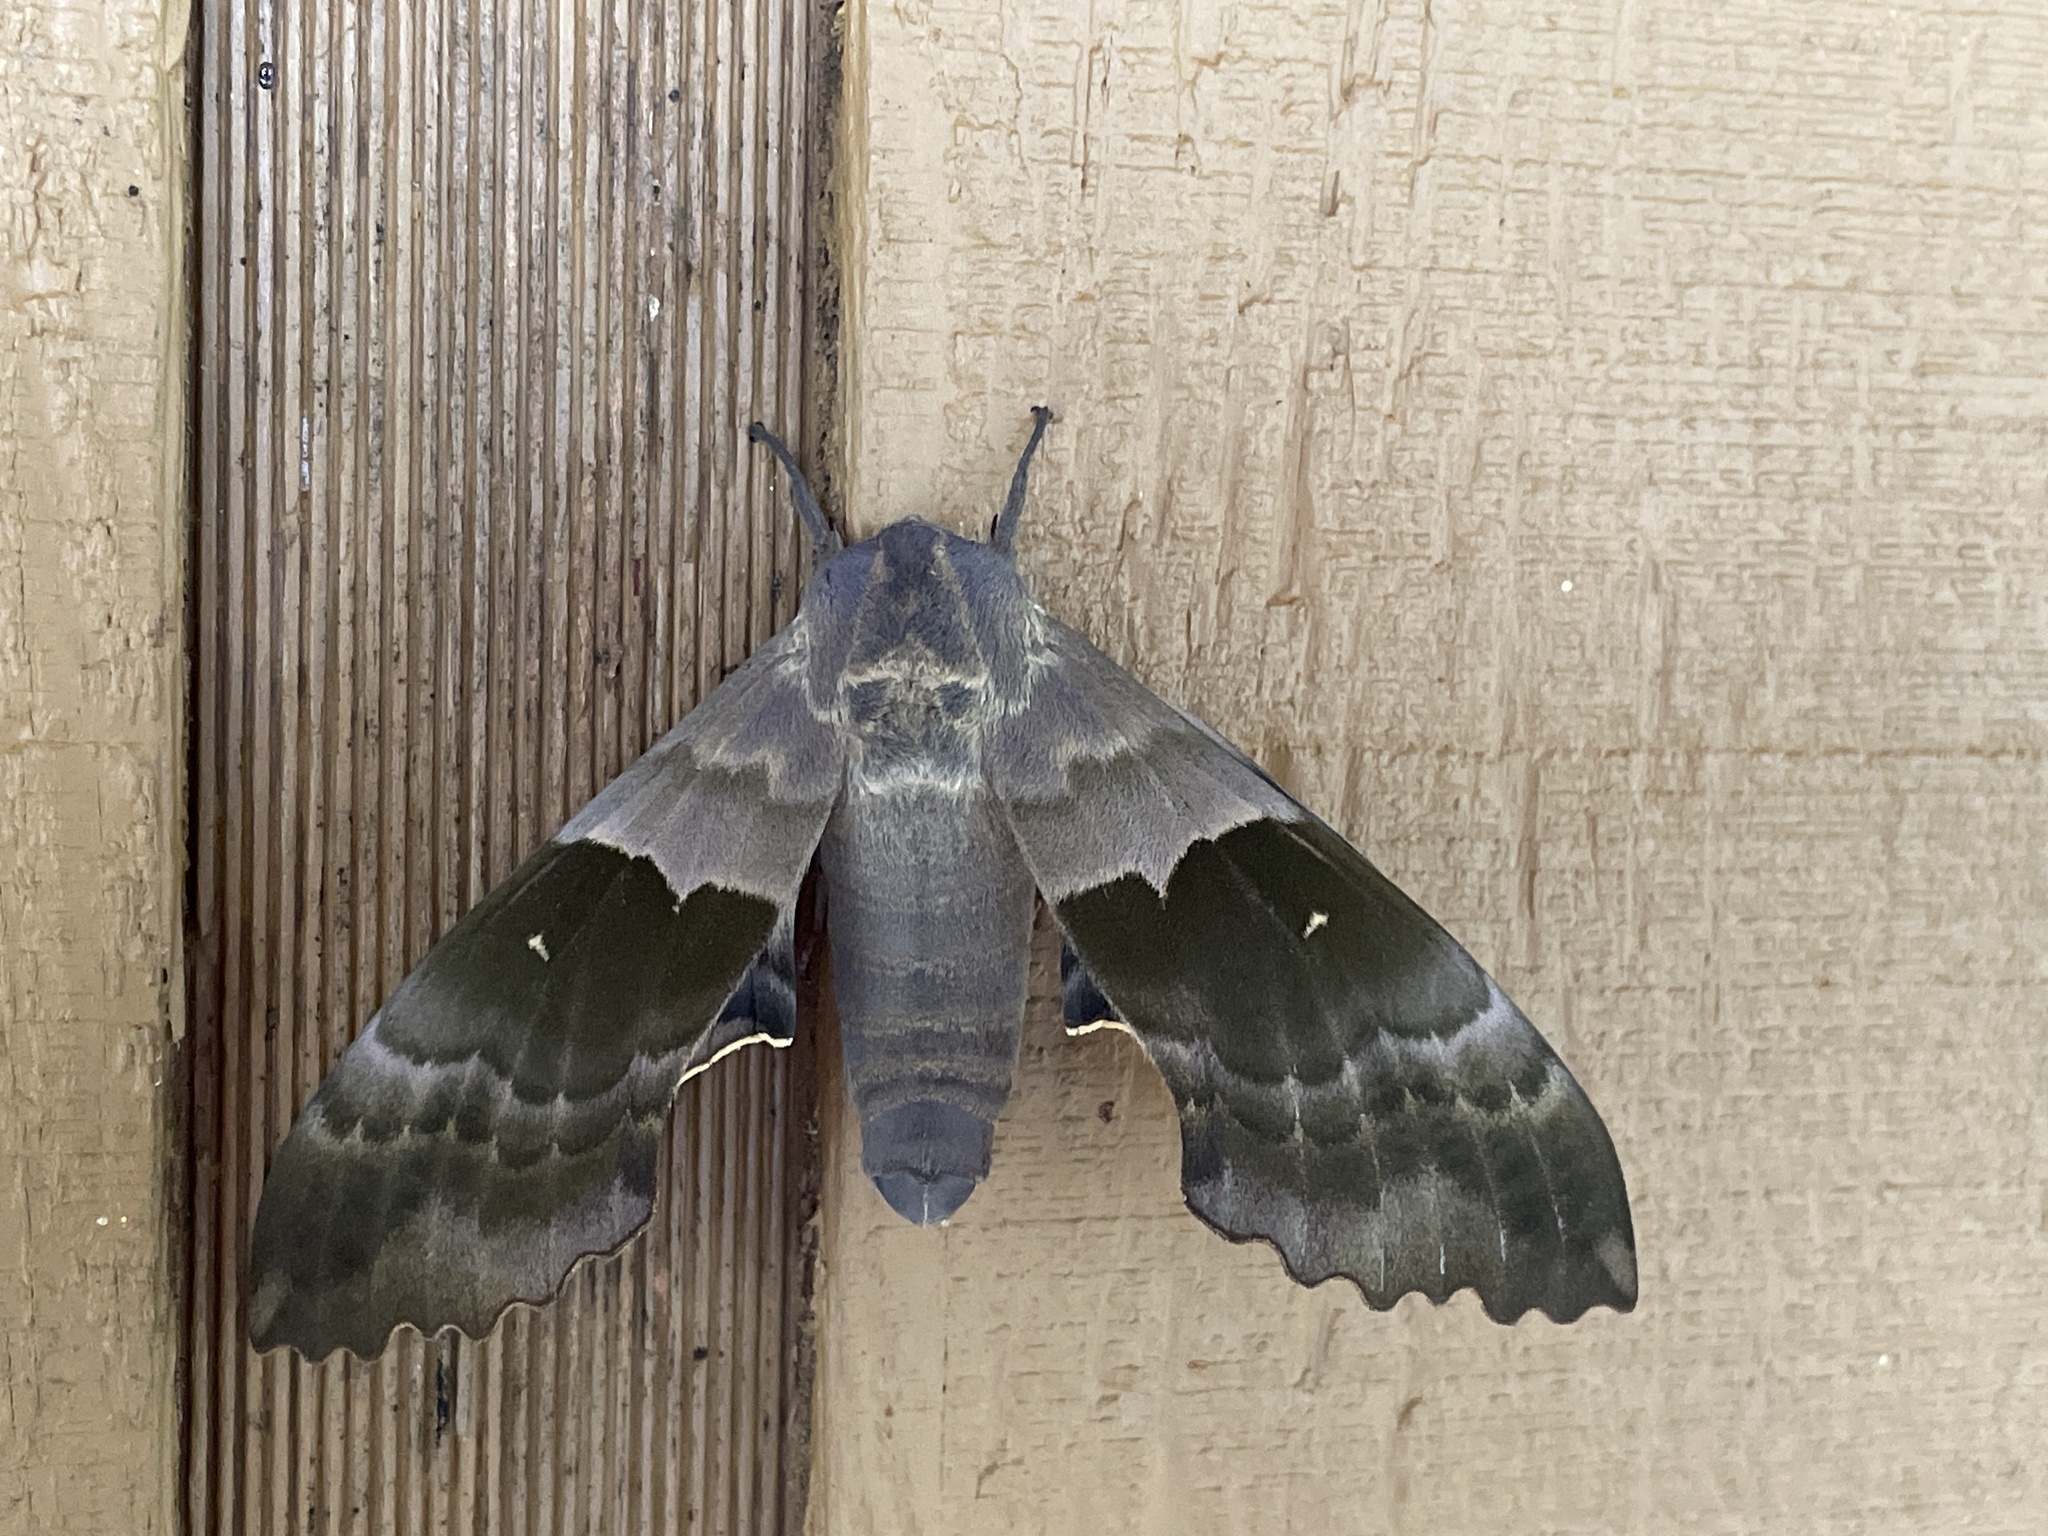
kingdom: Animalia
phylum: Arthropoda
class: Insecta
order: Lepidoptera
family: Sphingidae
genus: Pachysphinx
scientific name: Pachysphinx modesta
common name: Big poplar sphinx
